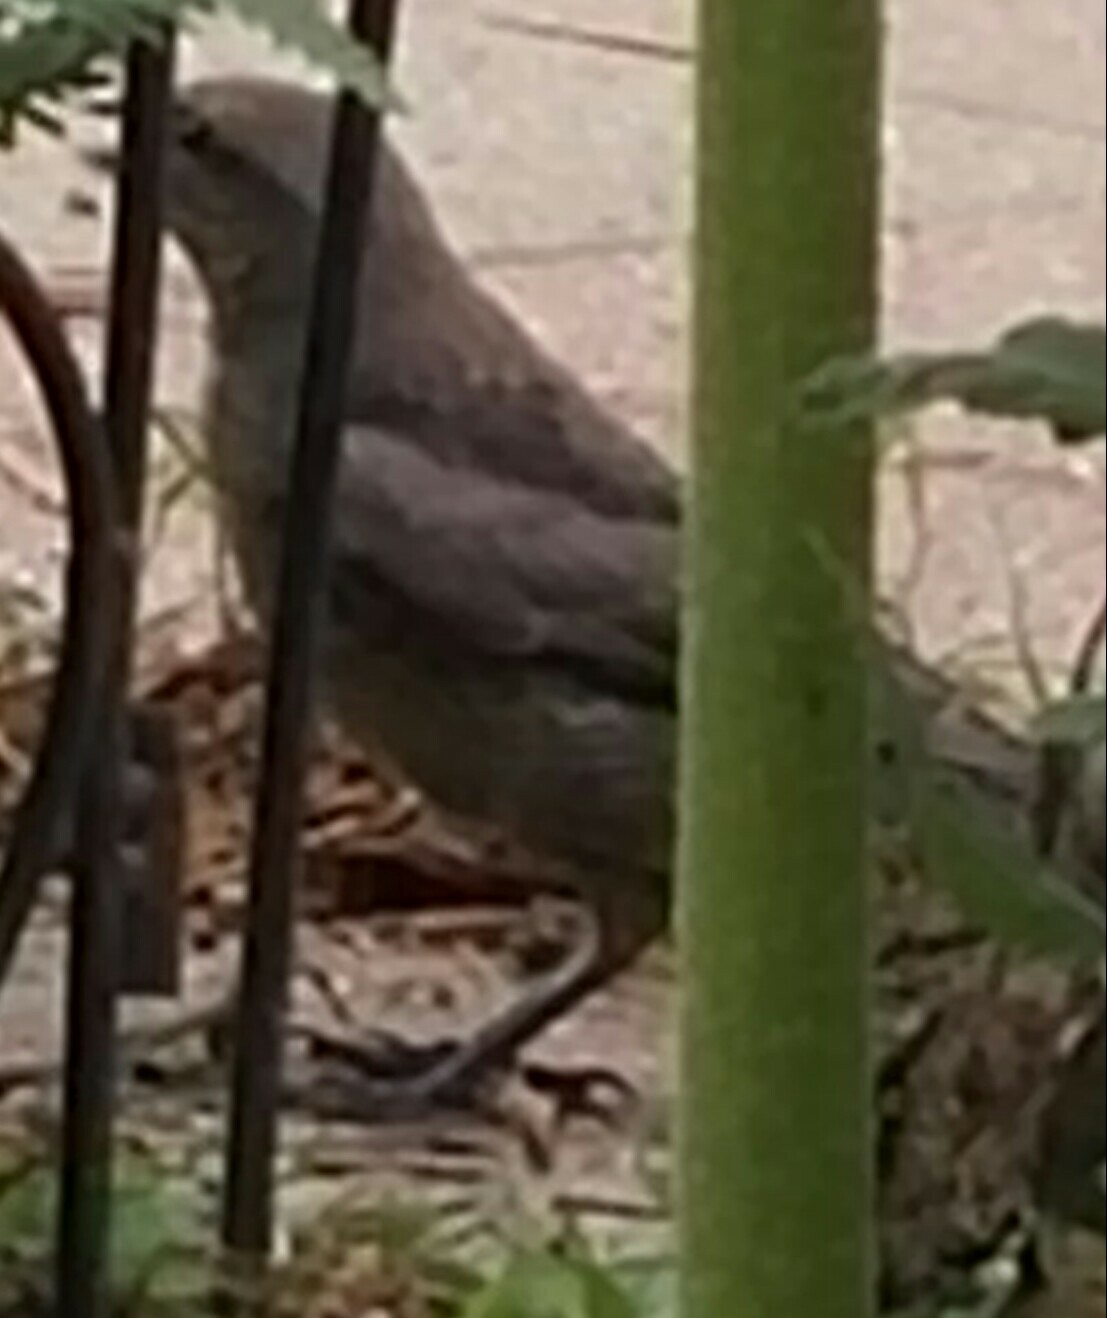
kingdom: Animalia
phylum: Chordata
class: Aves
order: Passeriformes
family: Icteridae
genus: Molothrus
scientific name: Molothrus ater
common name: Brown-headed cowbird
